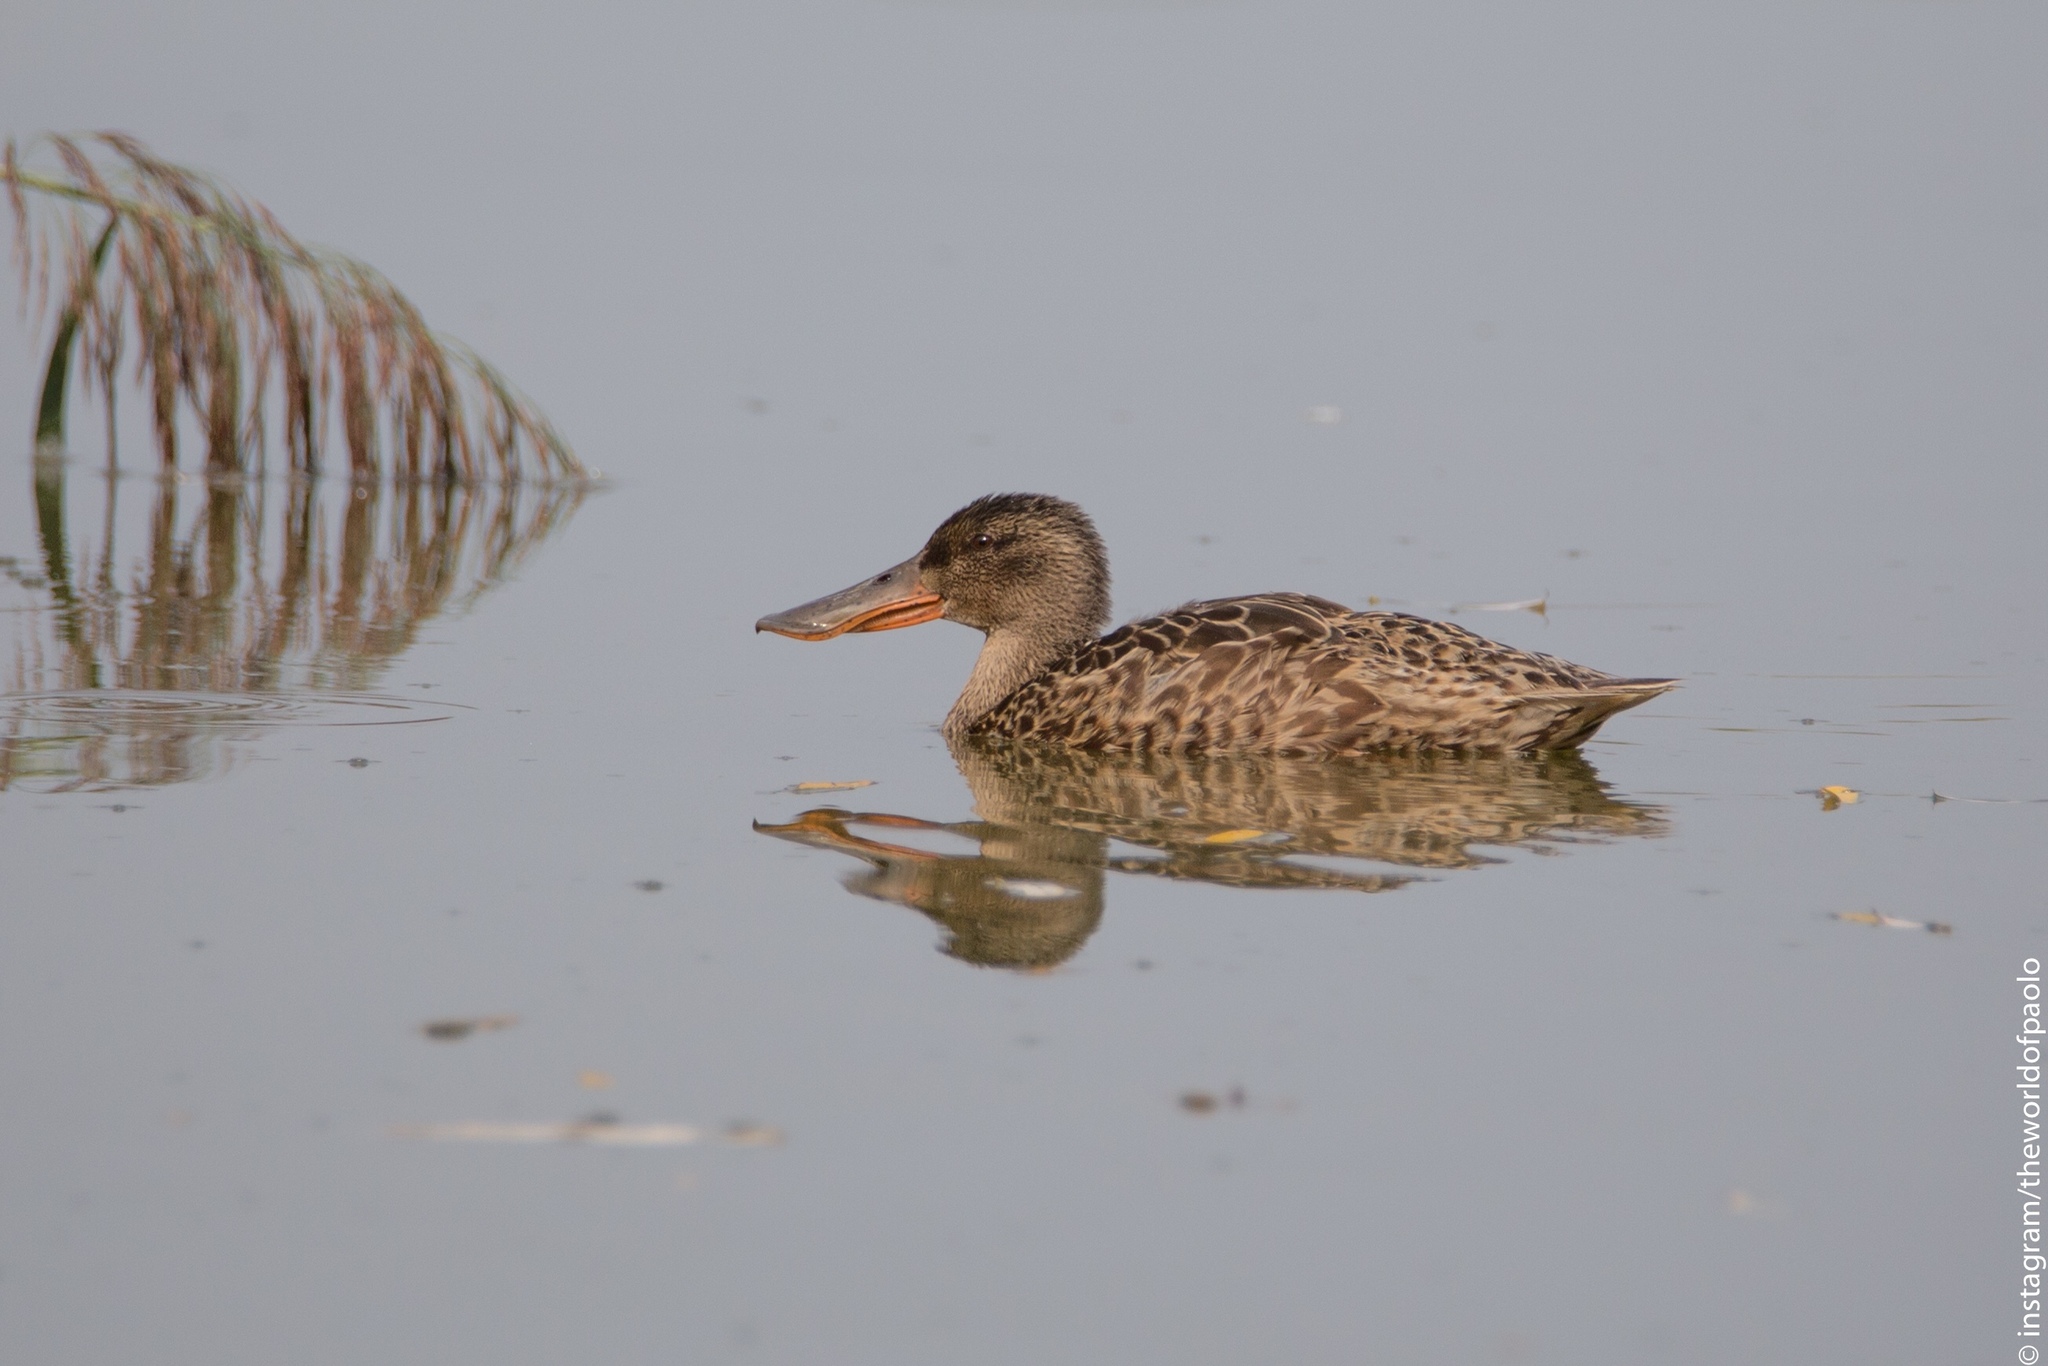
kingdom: Animalia
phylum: Chordata
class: Aves
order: Anseriformes
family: Anatidae
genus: Spatula
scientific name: Spatula clypeata
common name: Northern shoveler
